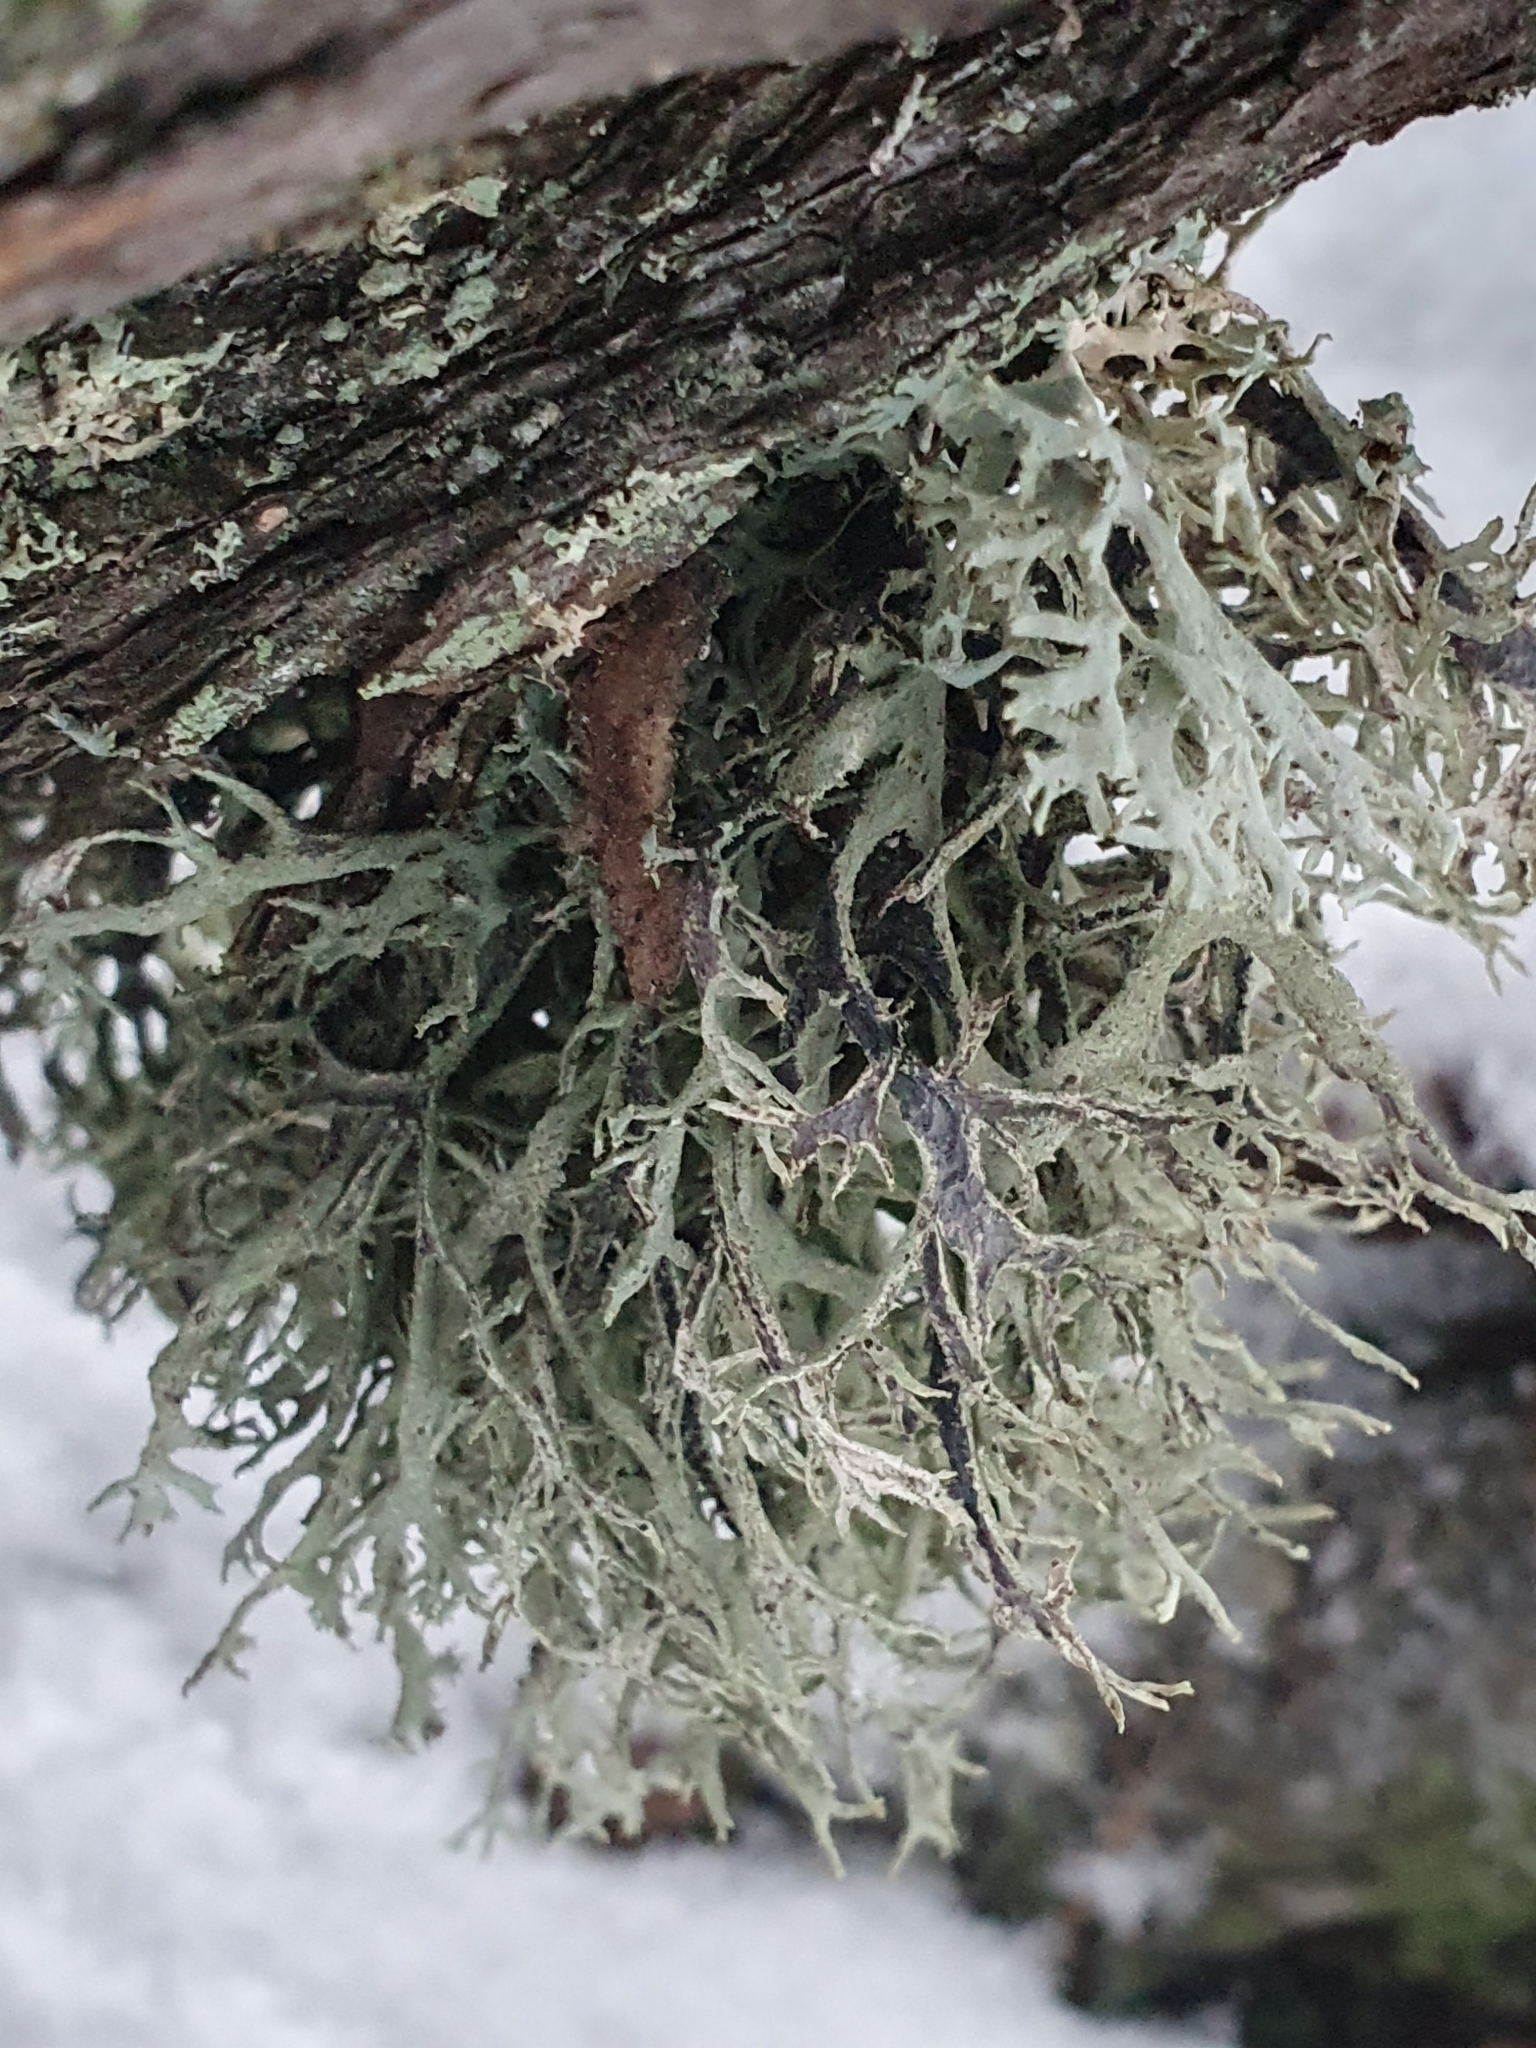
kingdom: Fungi
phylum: Ascomycota
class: Lecanoromycetes
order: Lecanorales
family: Parmeliaceae
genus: Pseudevernia
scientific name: Pseudevernia furfuracea
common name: Tree moss
